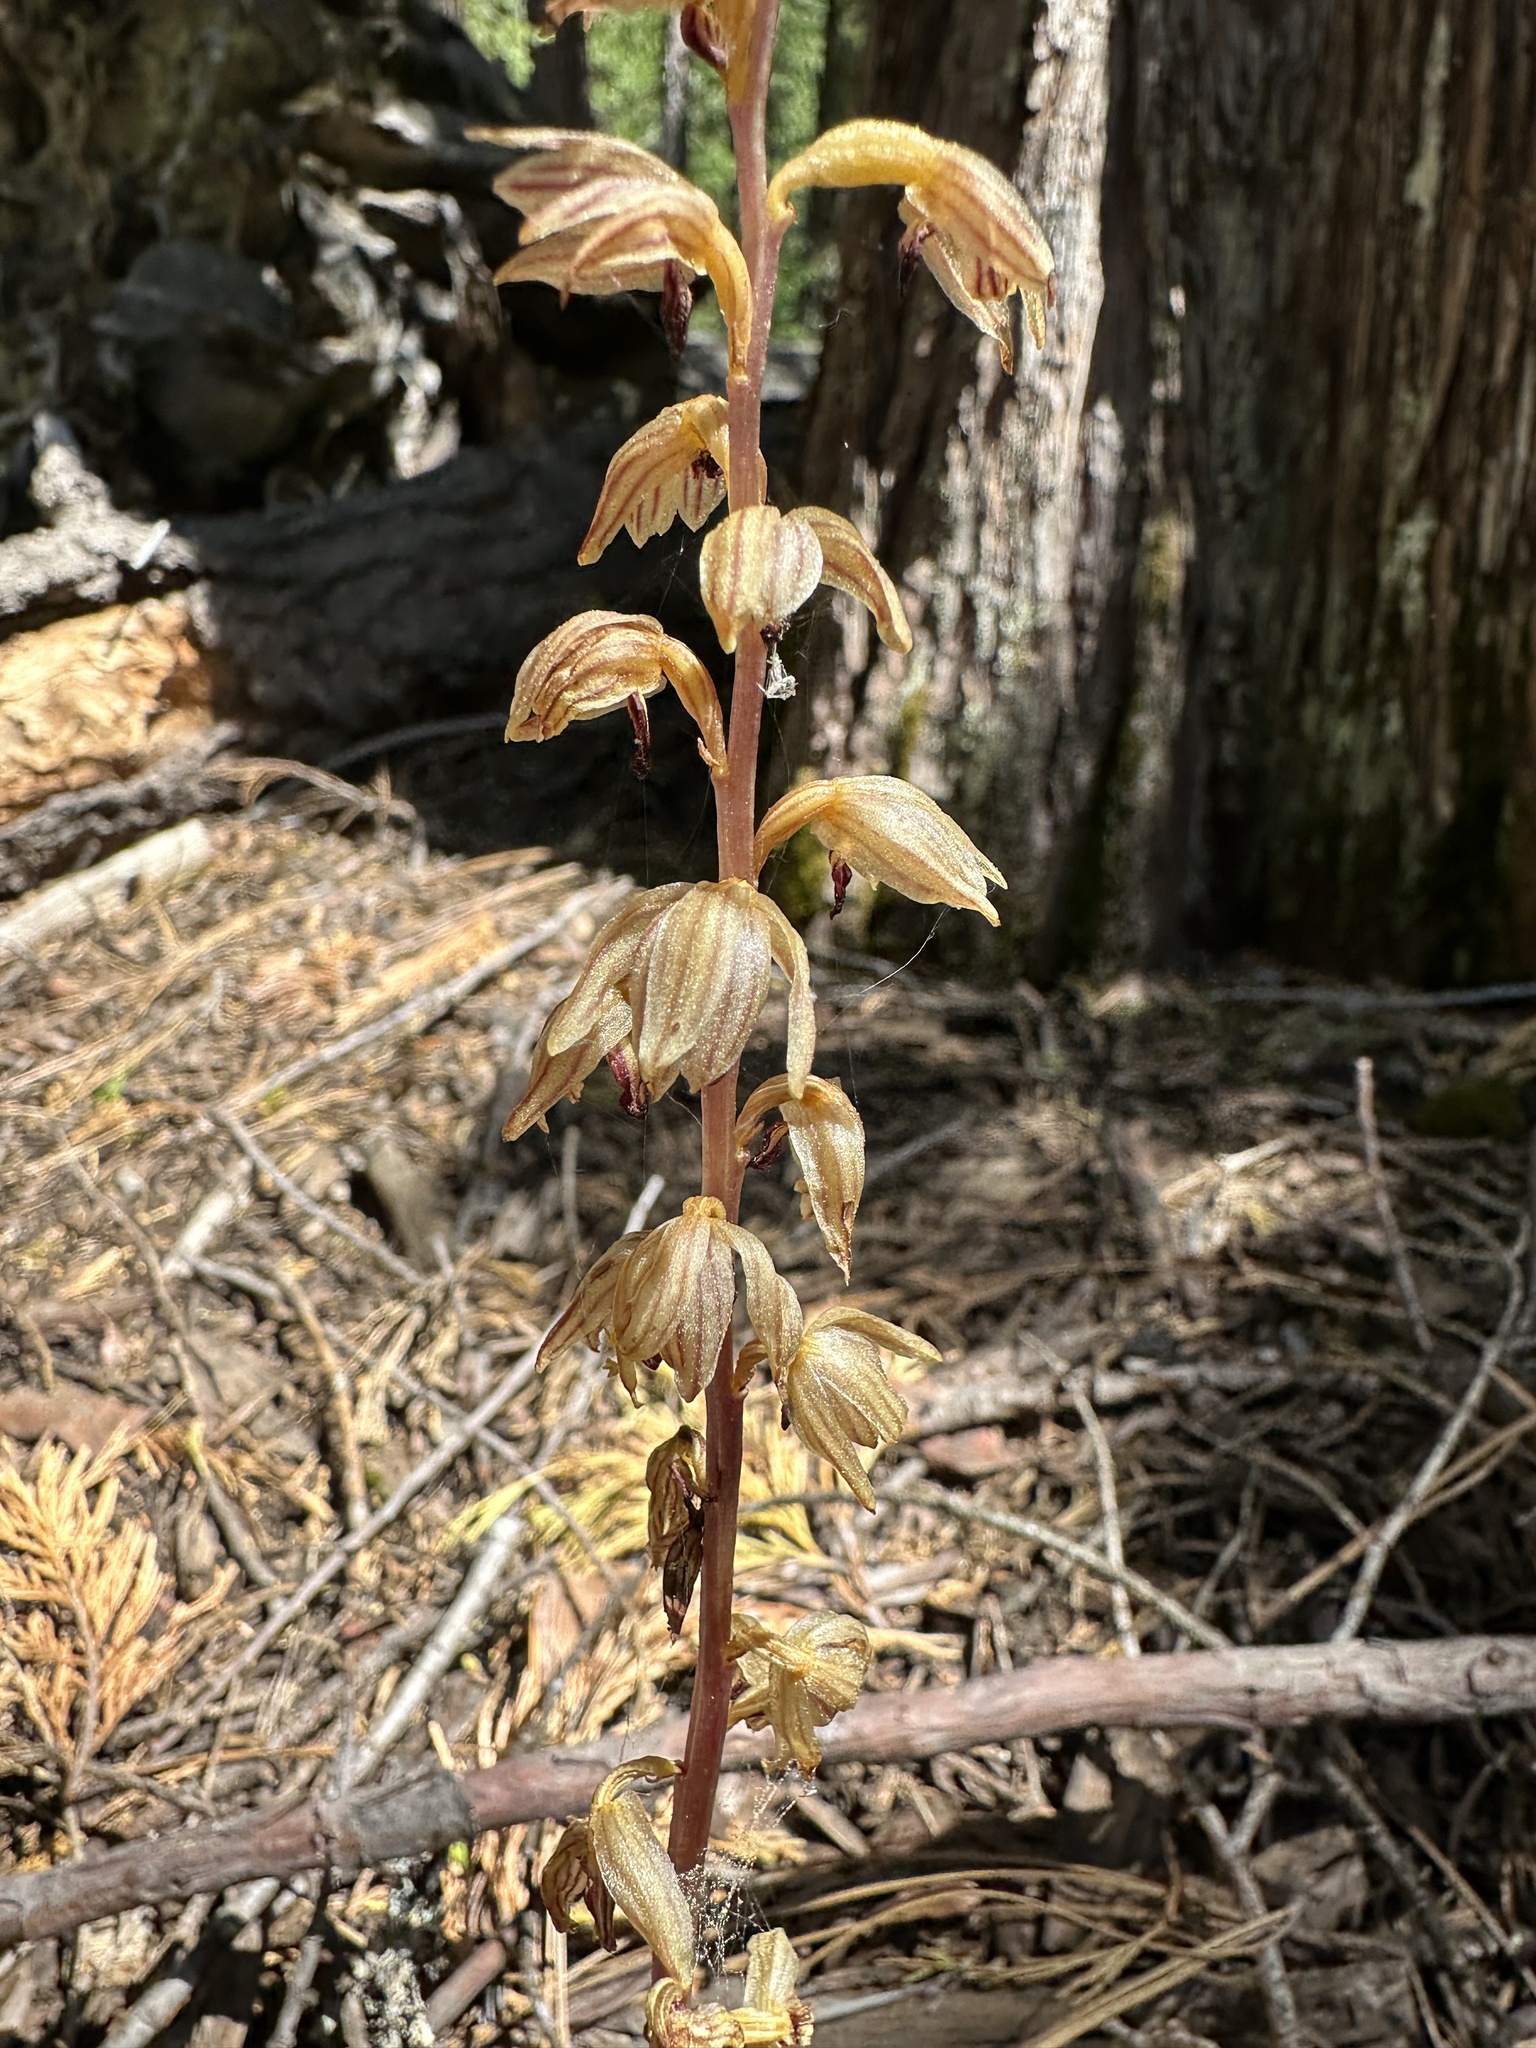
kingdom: Plantae
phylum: Tracheophyta
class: Liliopsida
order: Asparagales
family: Orchidaceae
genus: Corallorhiza
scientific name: Corallorhiza striata
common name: Hooded coralroot
